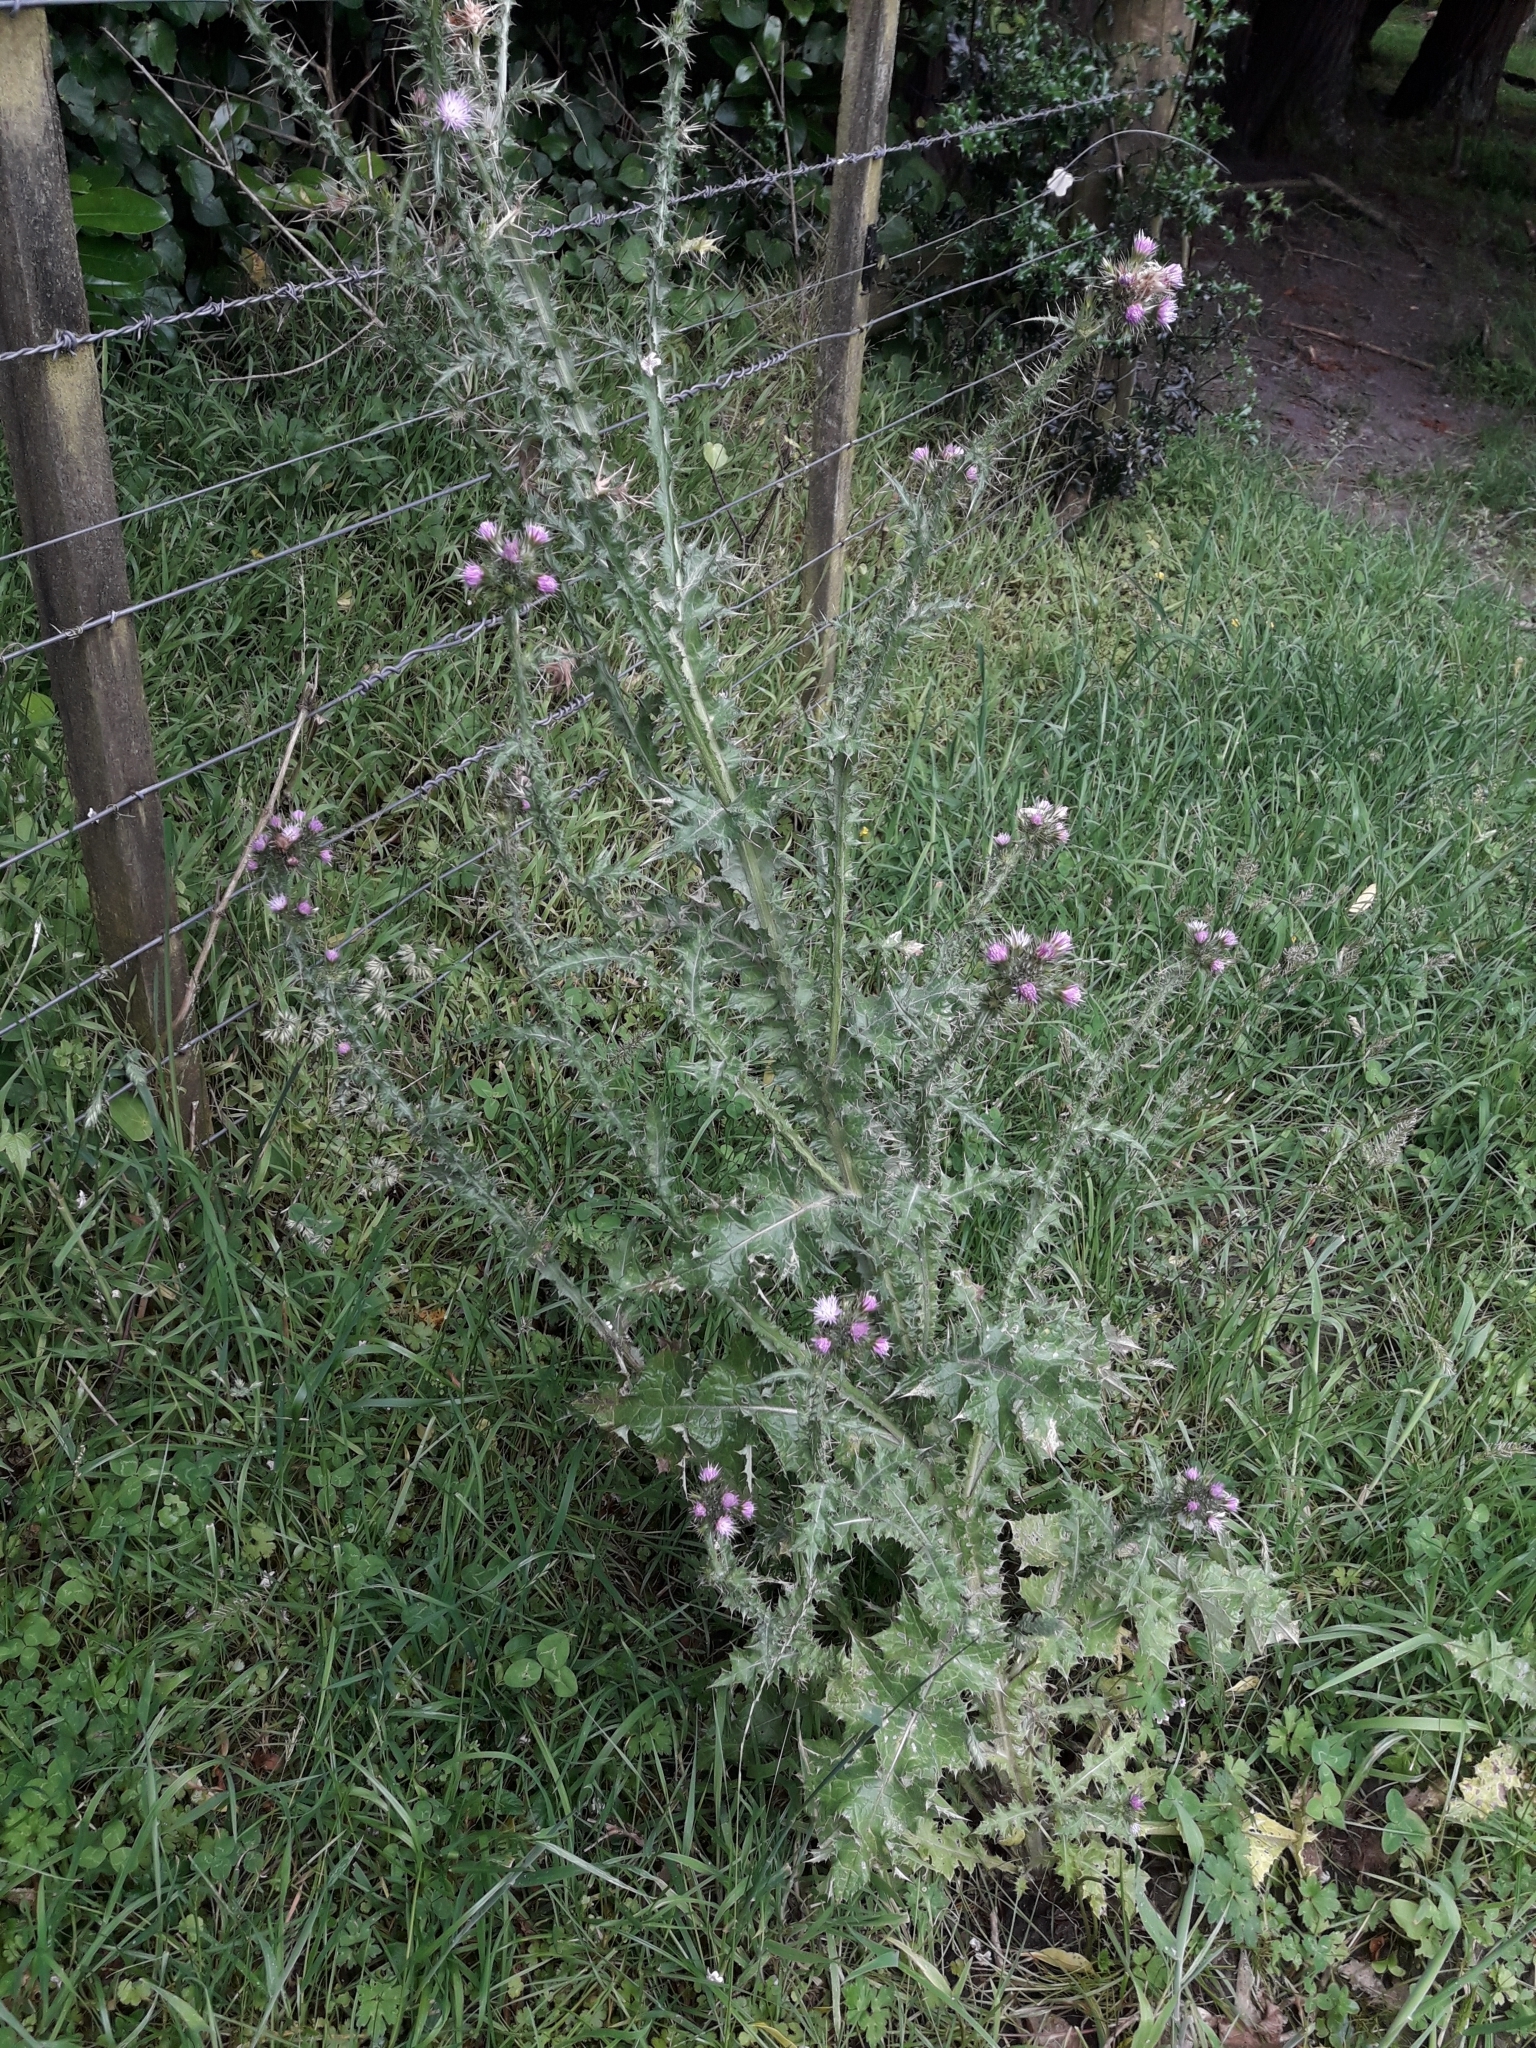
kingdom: Plantae
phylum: Tracheophyta
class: Magnoliopsida
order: Asterales
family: Asteraceae
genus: Carduus
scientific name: Carduus tenuiflorus
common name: Slender thistle
